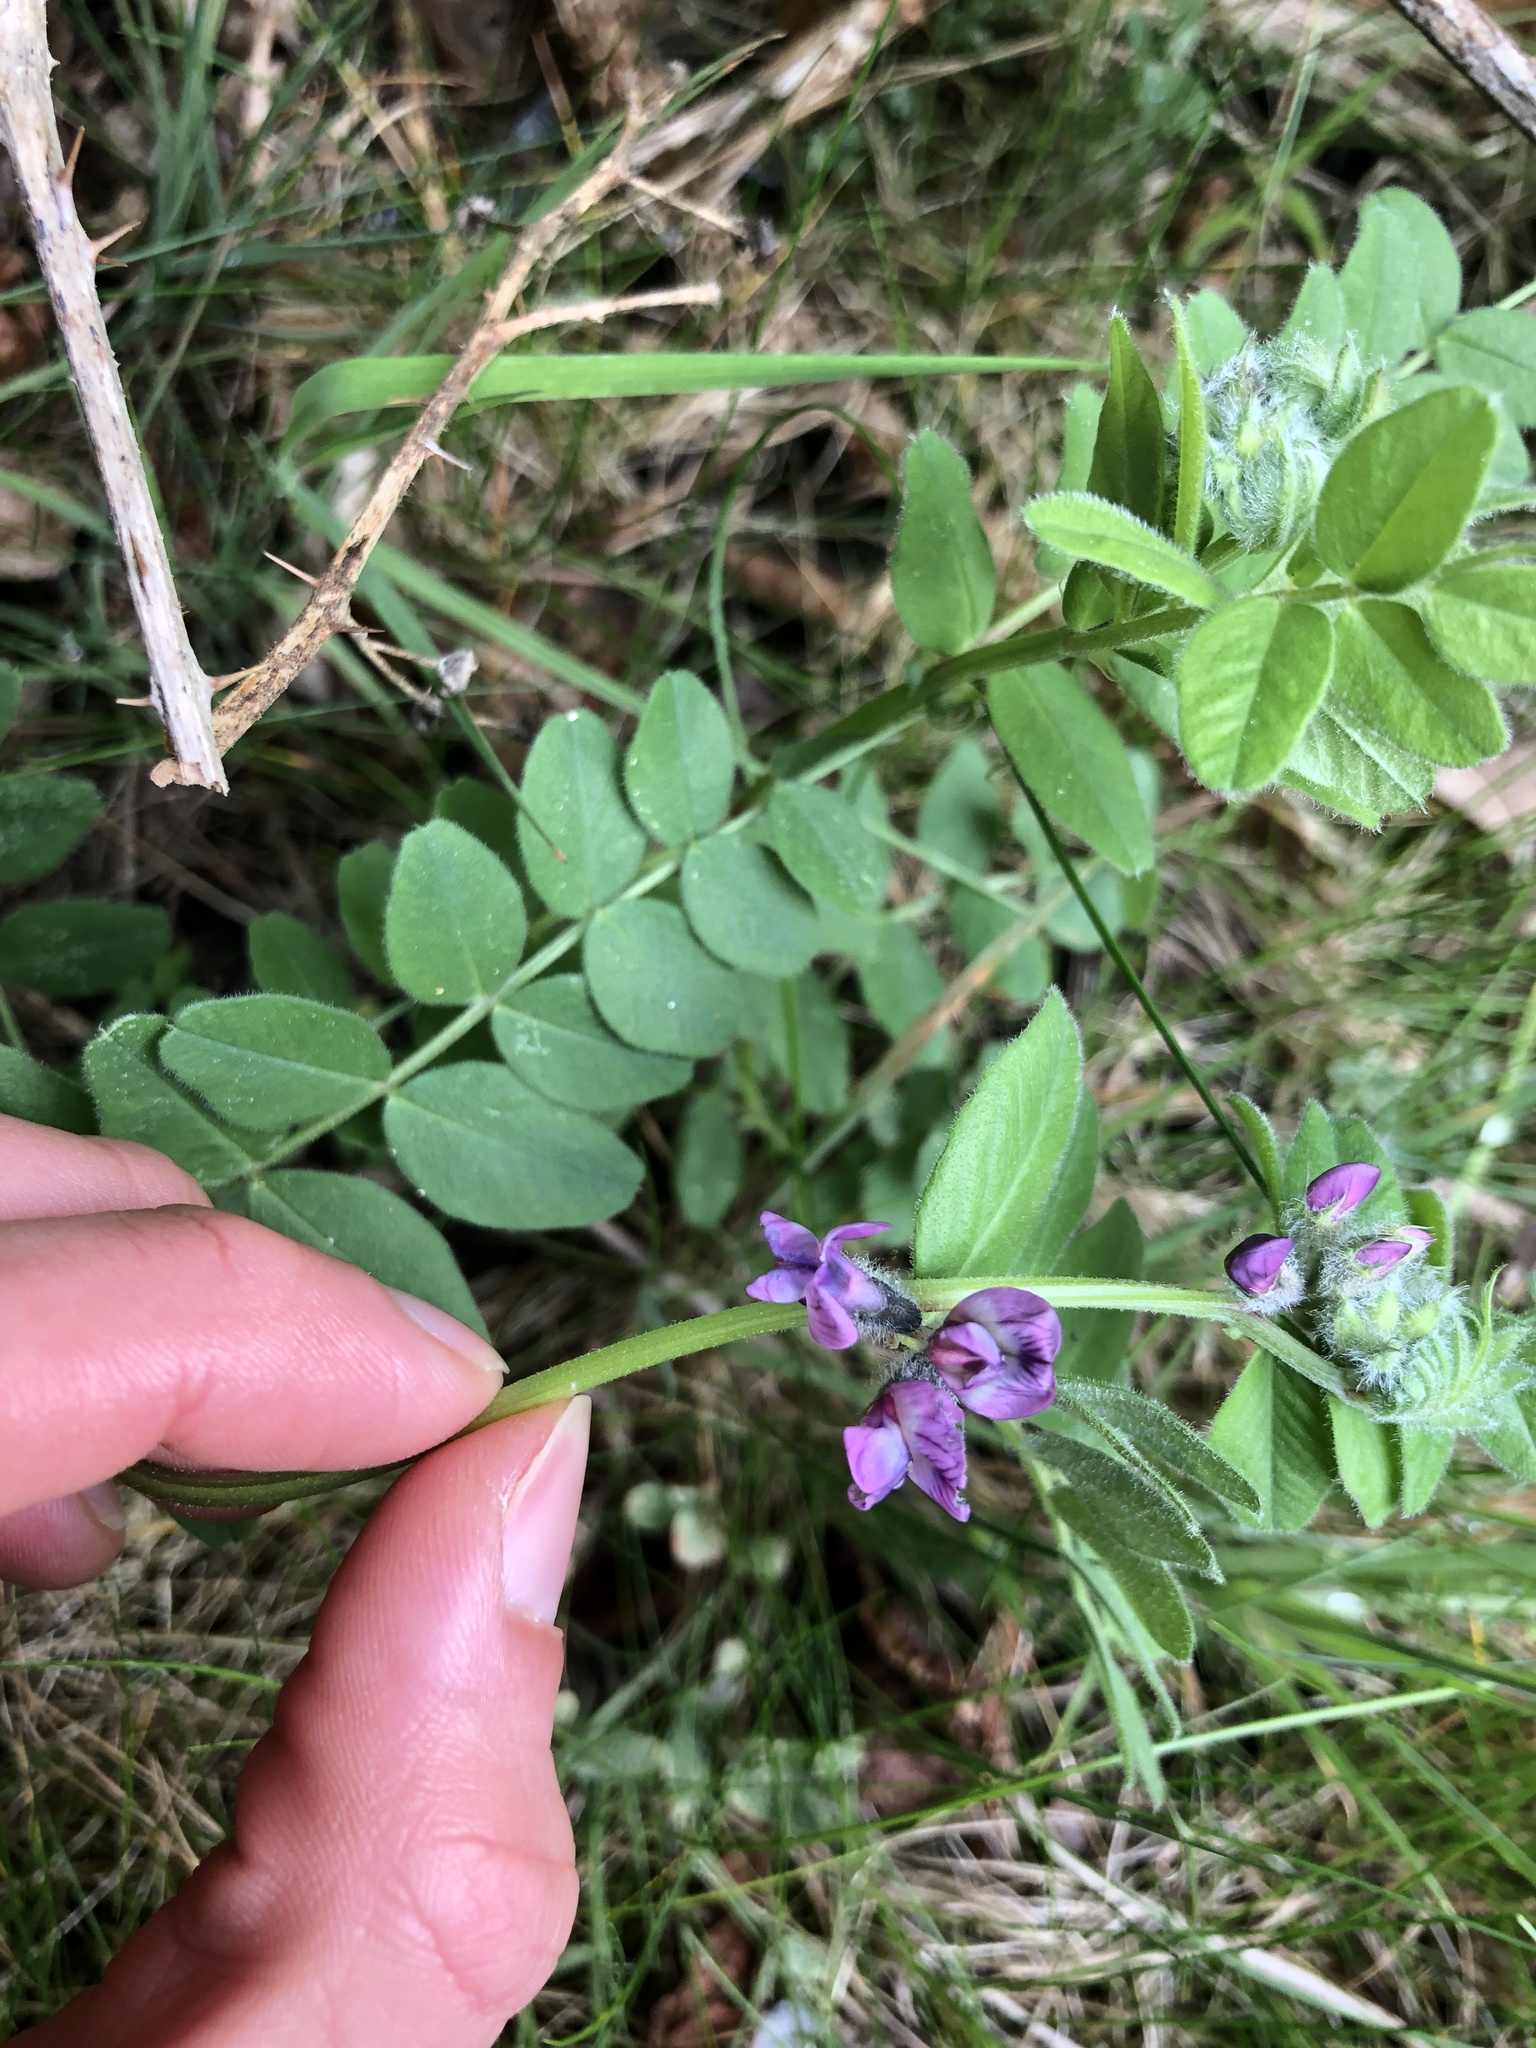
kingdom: Plantae
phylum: Tracheophyta
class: Magnoliopsida
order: Fabales
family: Fabaceae
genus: Vicia
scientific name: Vicia sepium
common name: Bush vetch
